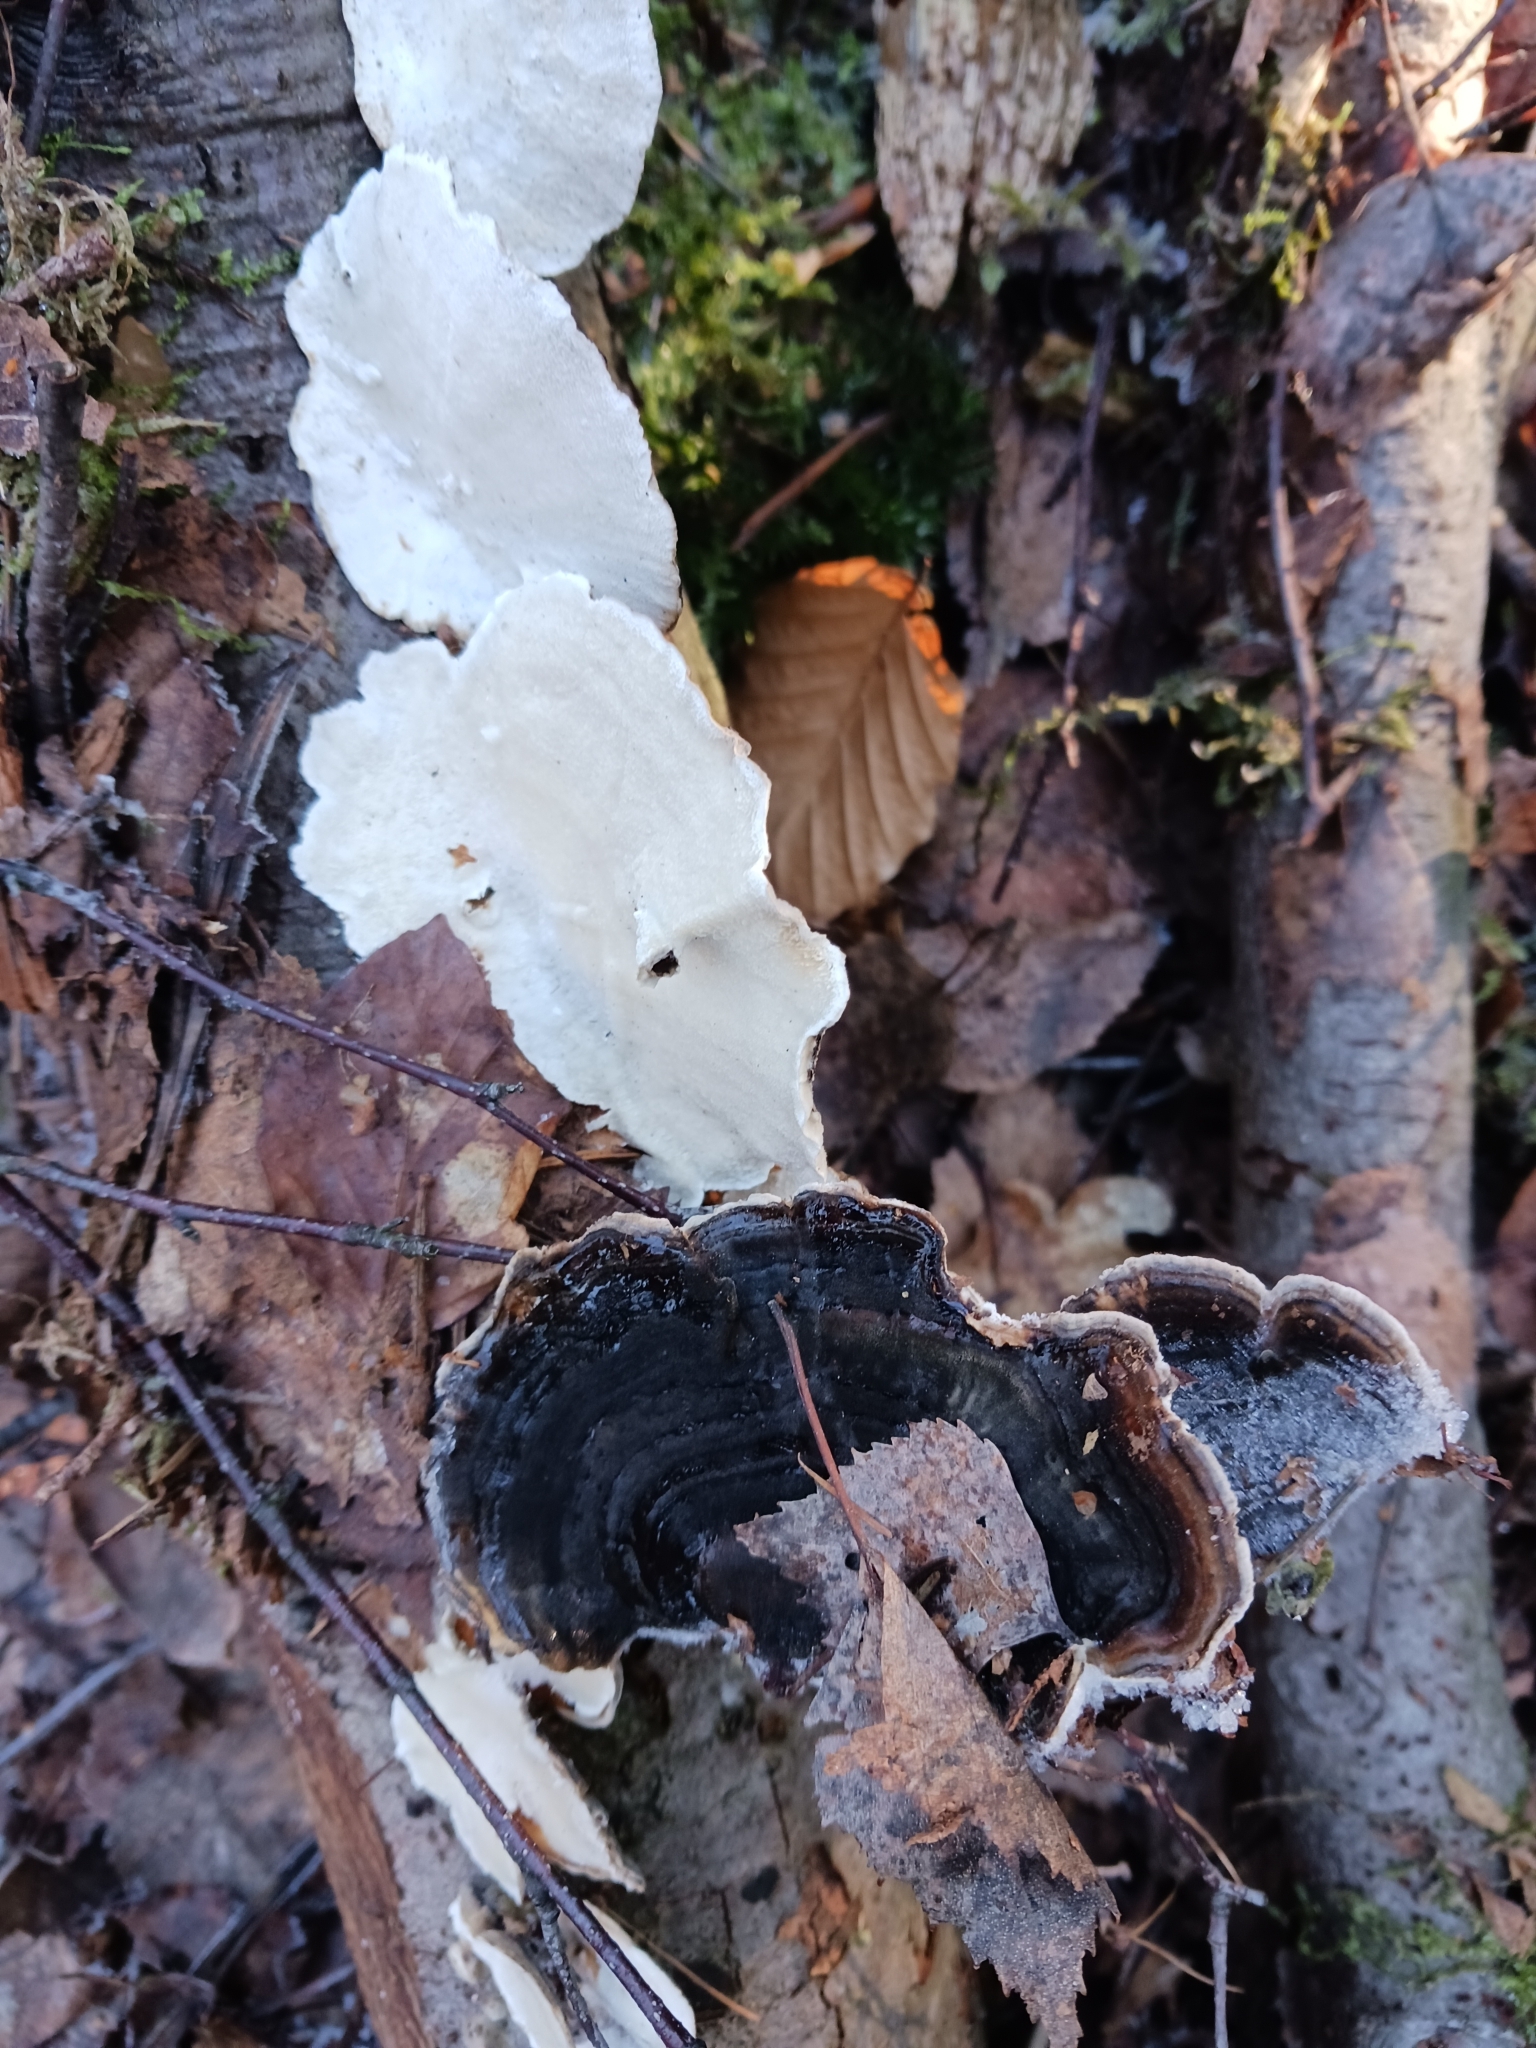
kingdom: Fungi
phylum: Basidiomycota
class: Agaricomycetes
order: Polyporales
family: Polyporaceae
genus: Trametes
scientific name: Trametes versicolor
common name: Turkeytail
